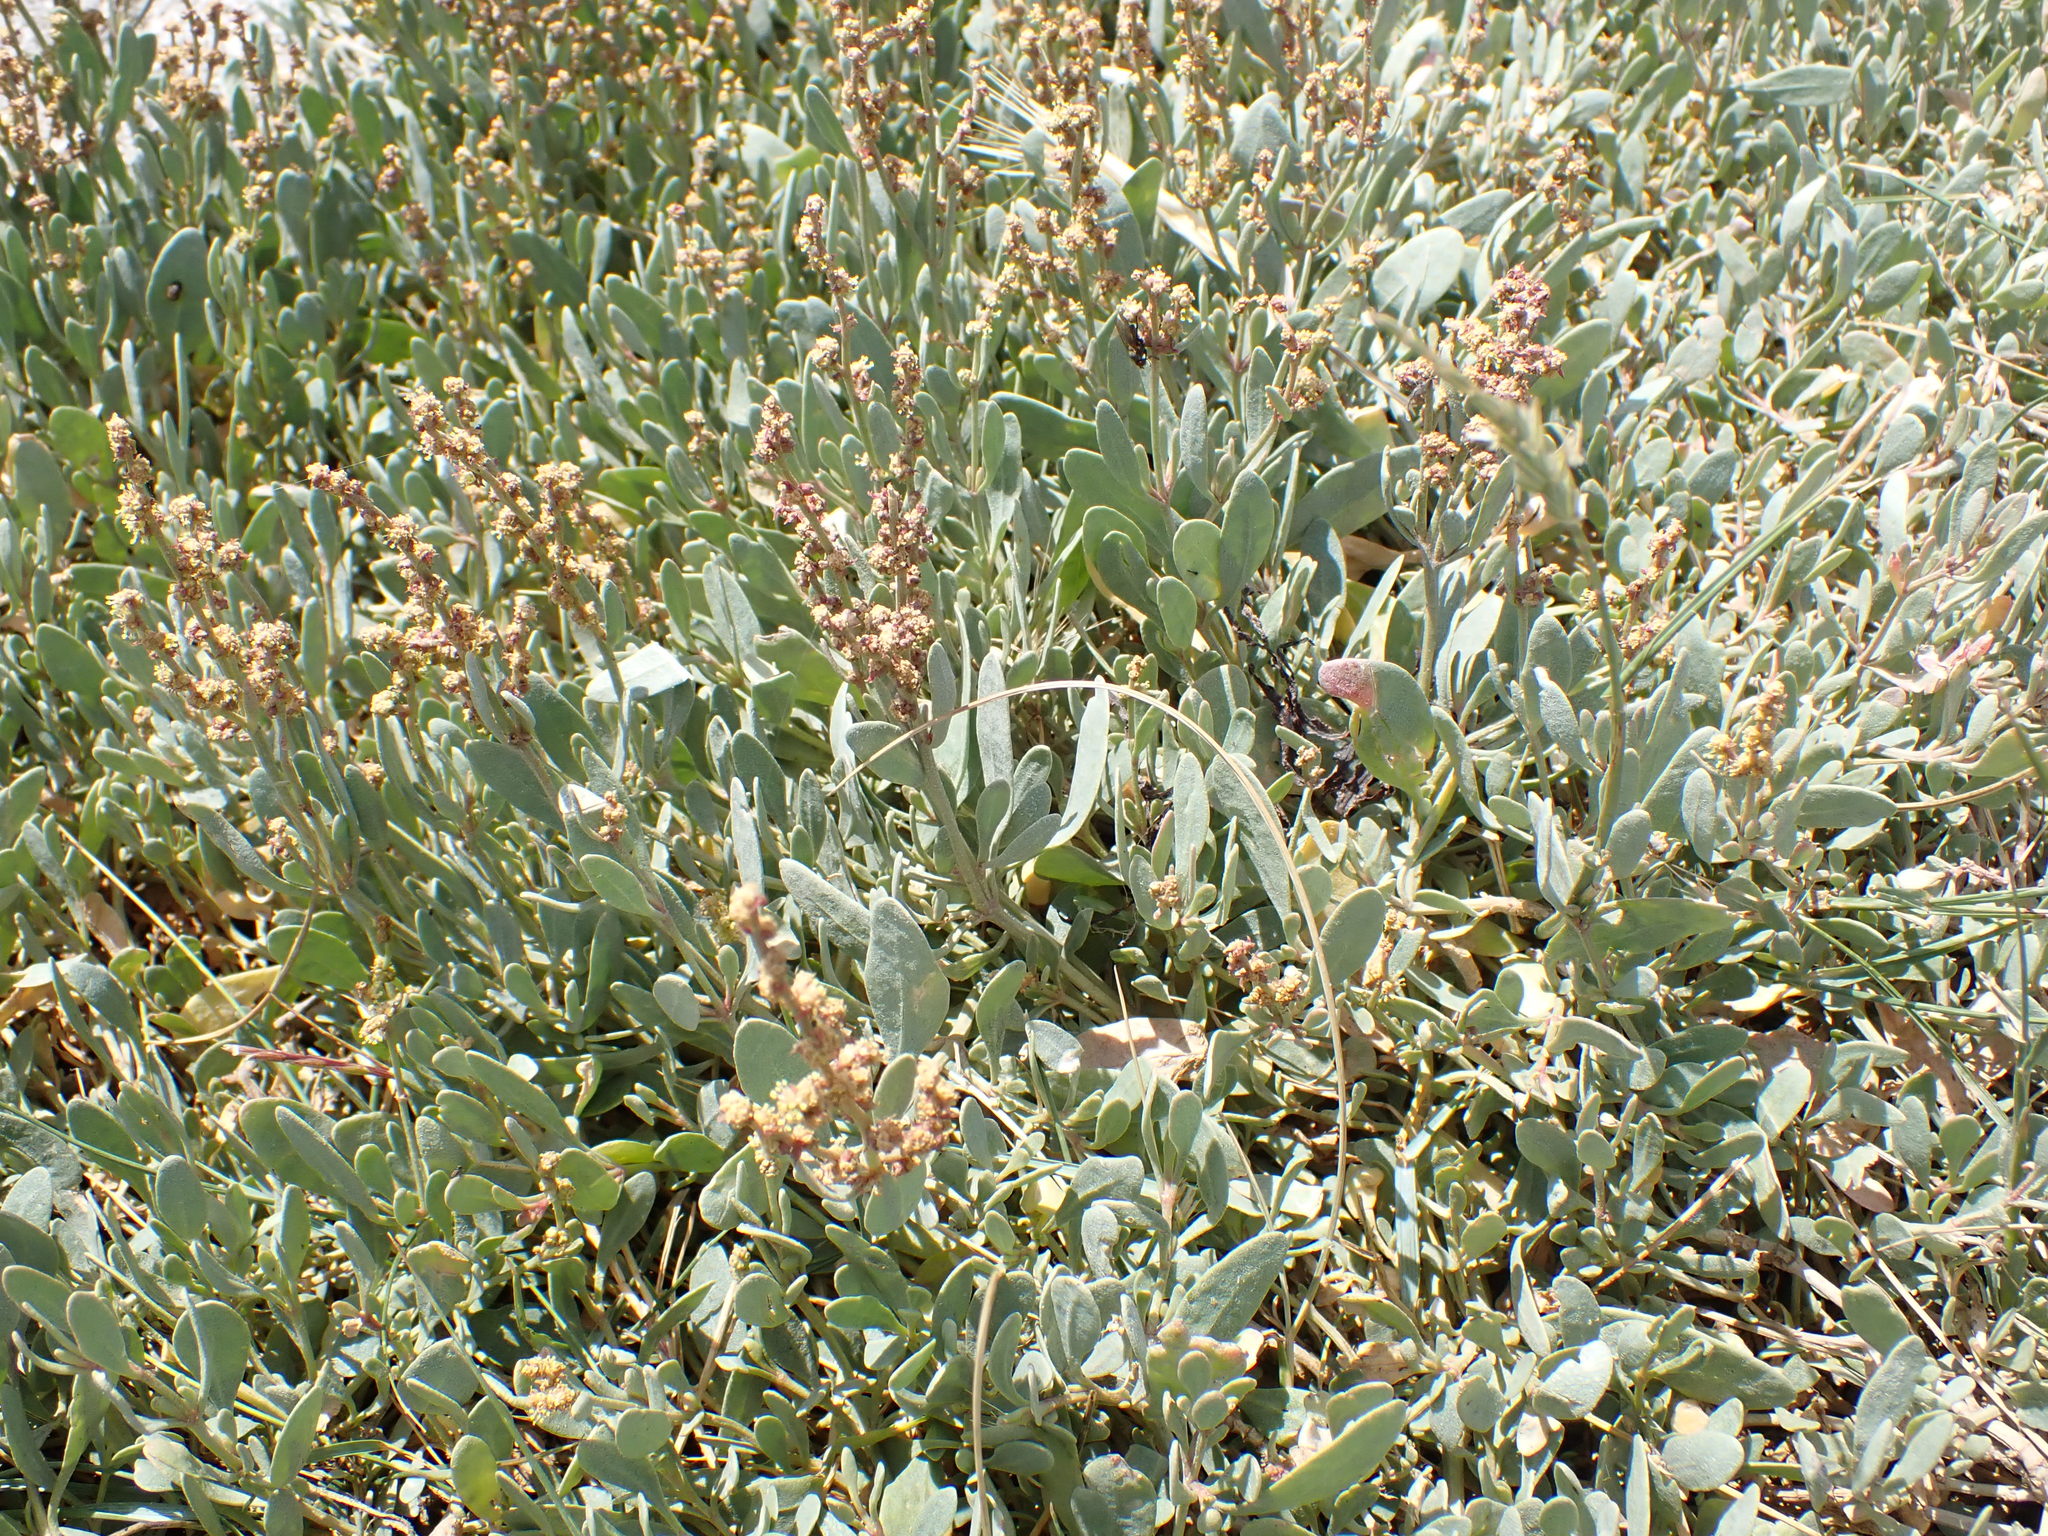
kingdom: Plantae
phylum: Tracheophyta
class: Magnoliopsida
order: Caryophyllales
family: Amaranthaceae
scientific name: Amaranthaceae
